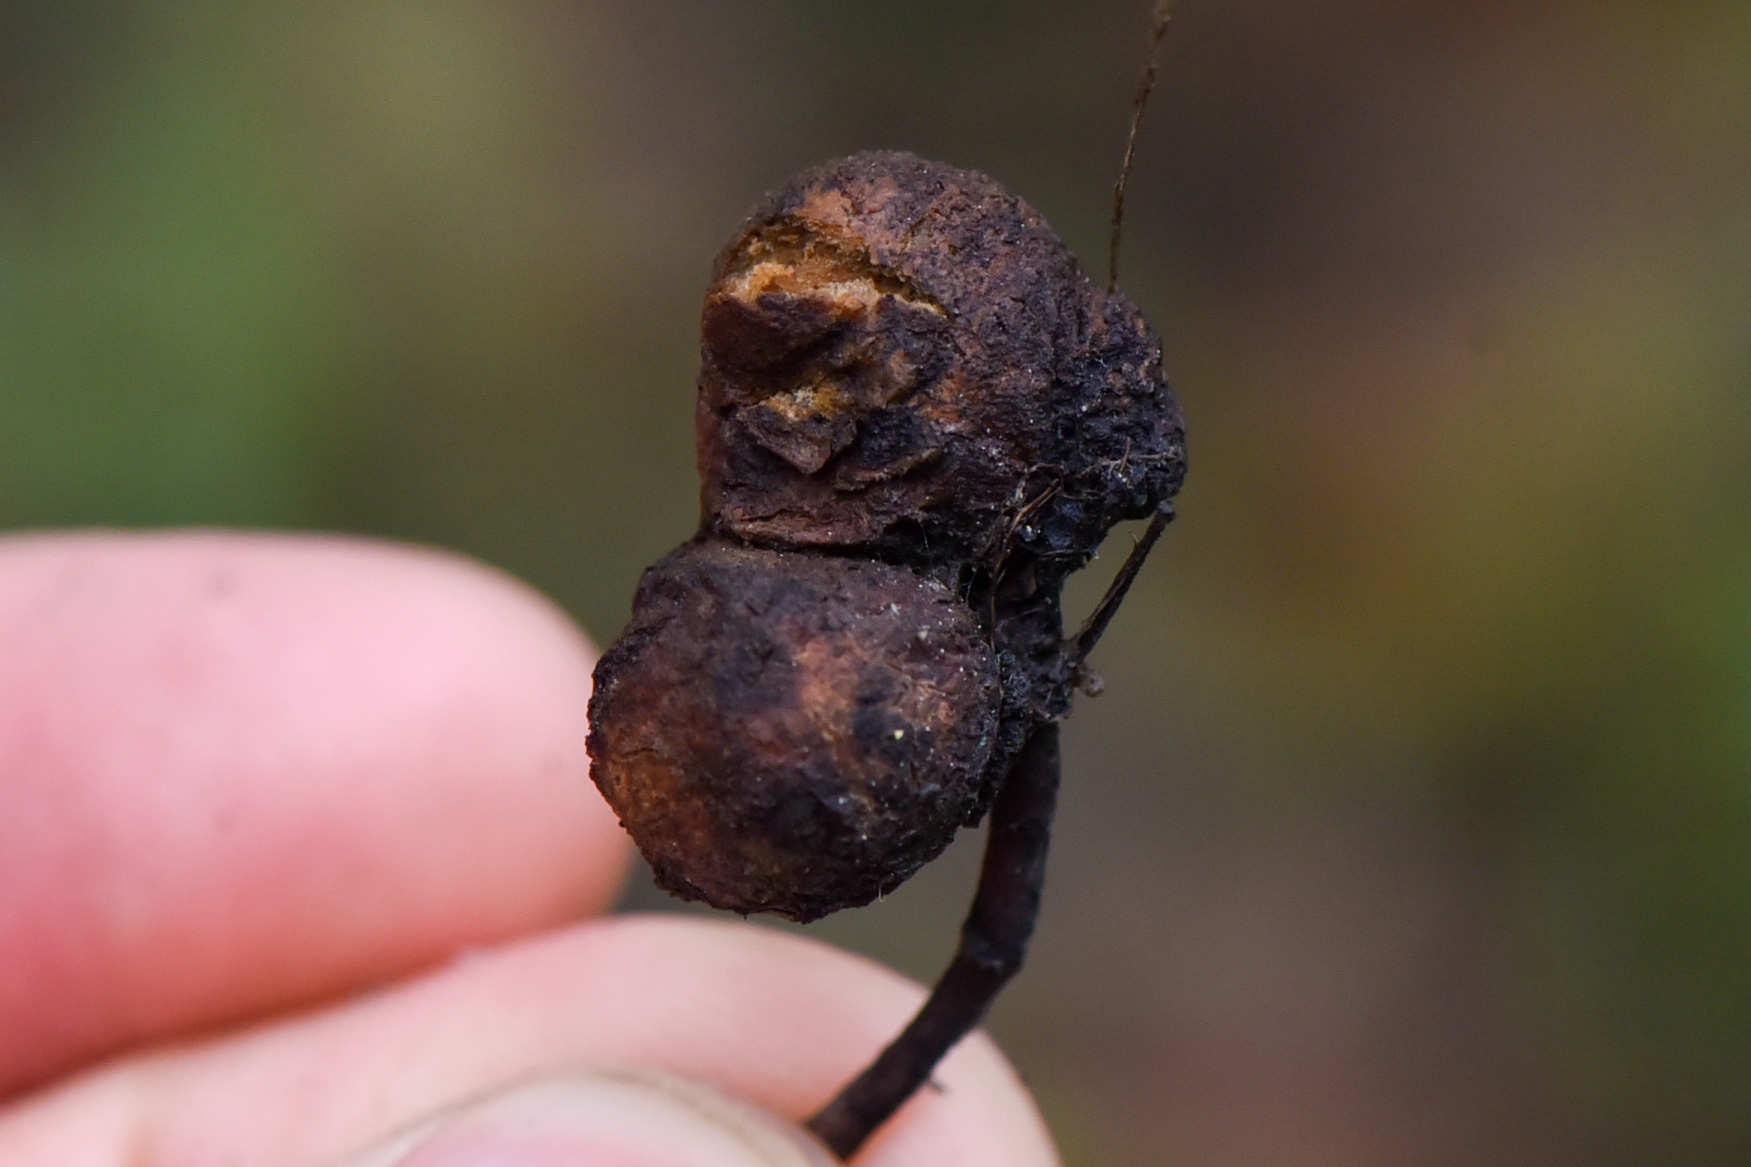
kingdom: Animalia
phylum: Arthropoda
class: Insecta
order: Hymenoptera
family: Cynipidae
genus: Diplolepis
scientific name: Diplolepis variabilis
